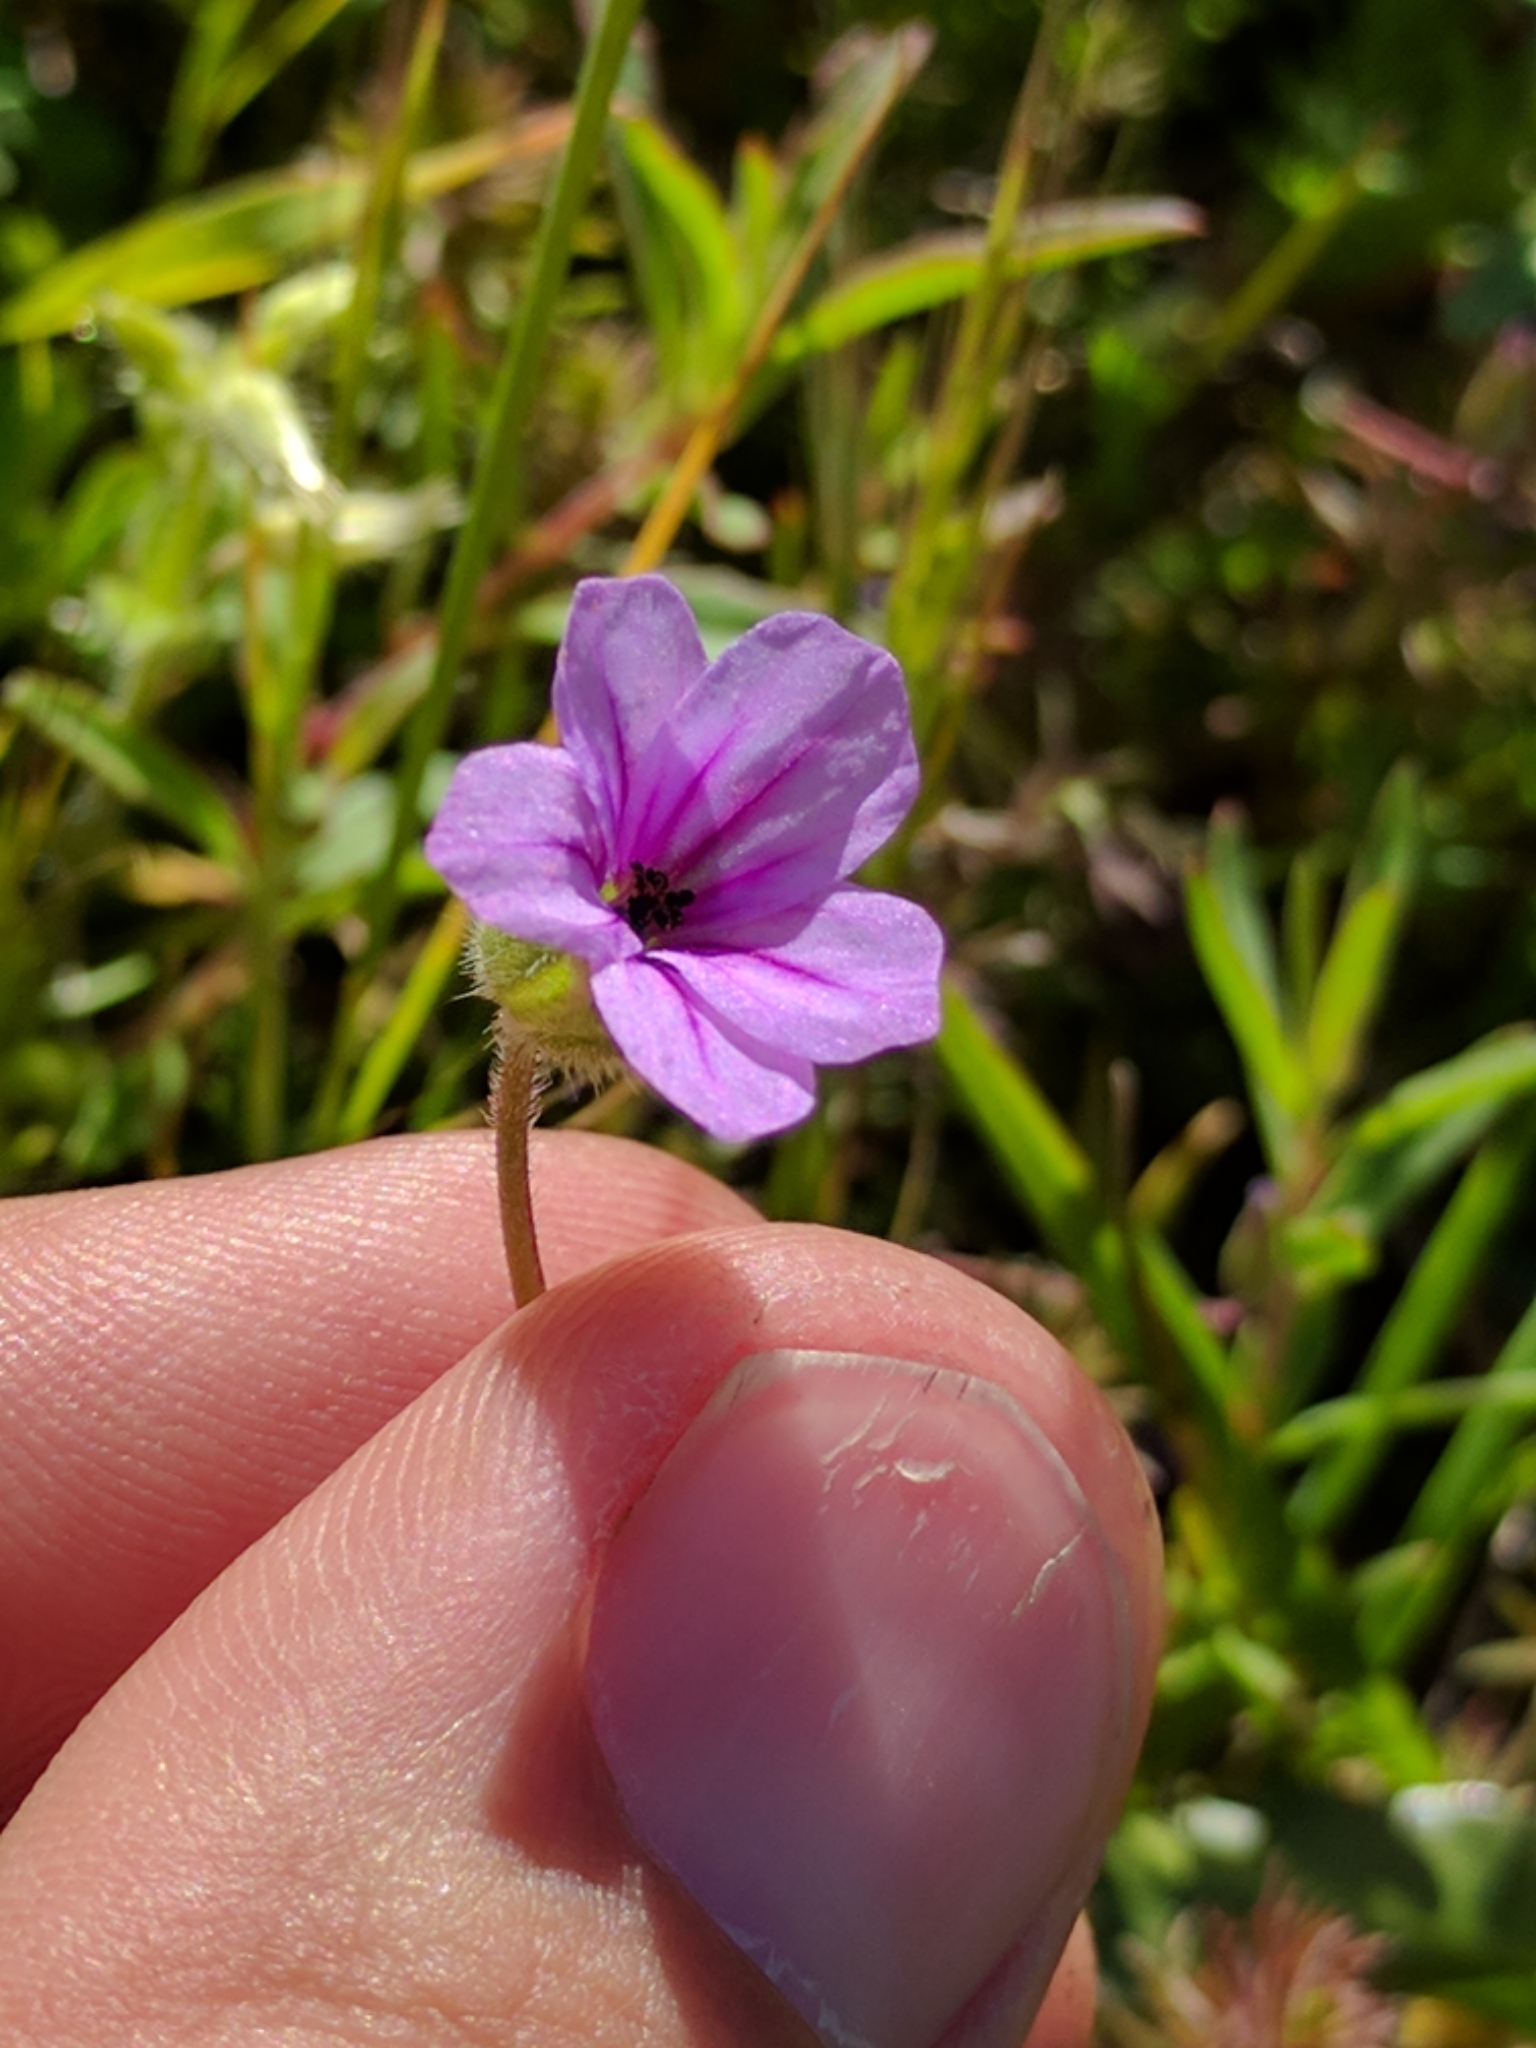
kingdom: Plantae
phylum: Tracheophyta
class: Magnoliopsida
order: Geraniales
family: Geraniaceae
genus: Erodium
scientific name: Erodium botrys
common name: Mediterranean stork's-bill
